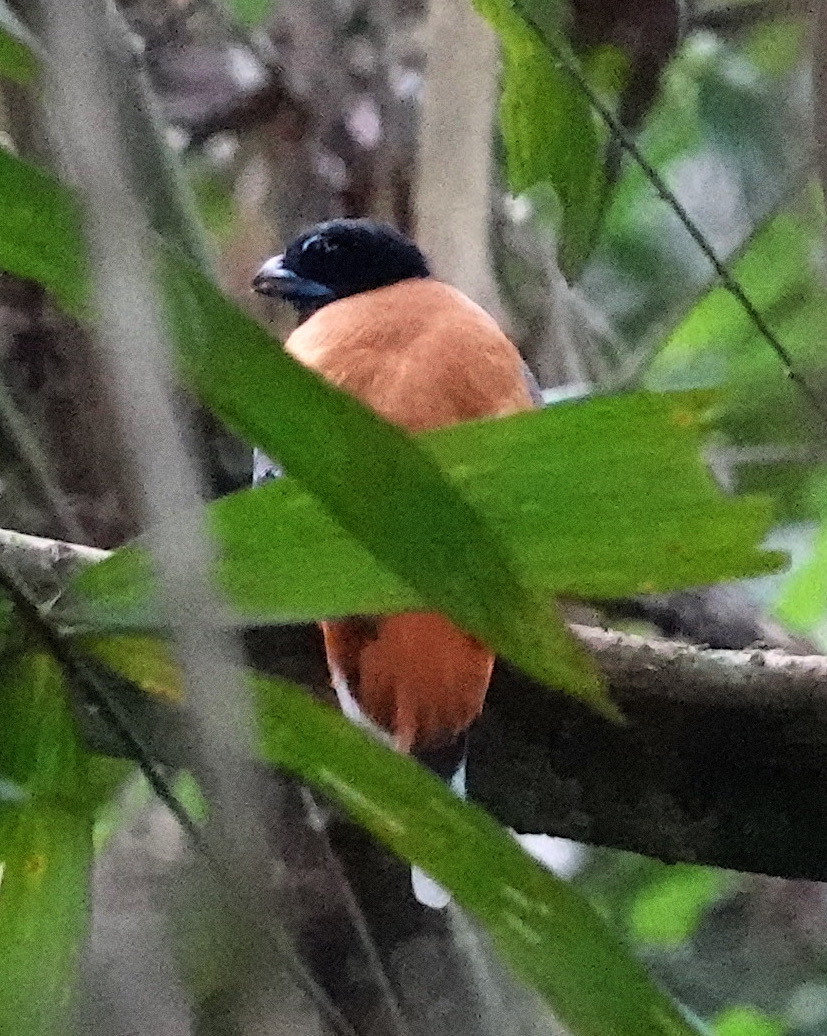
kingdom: Animalia
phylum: Chordata
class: Aves
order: Trogoniformes
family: Trogonidae
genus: Harpactes
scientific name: Harpactes orrhophaeus
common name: Cinnamon-rumped trogon
